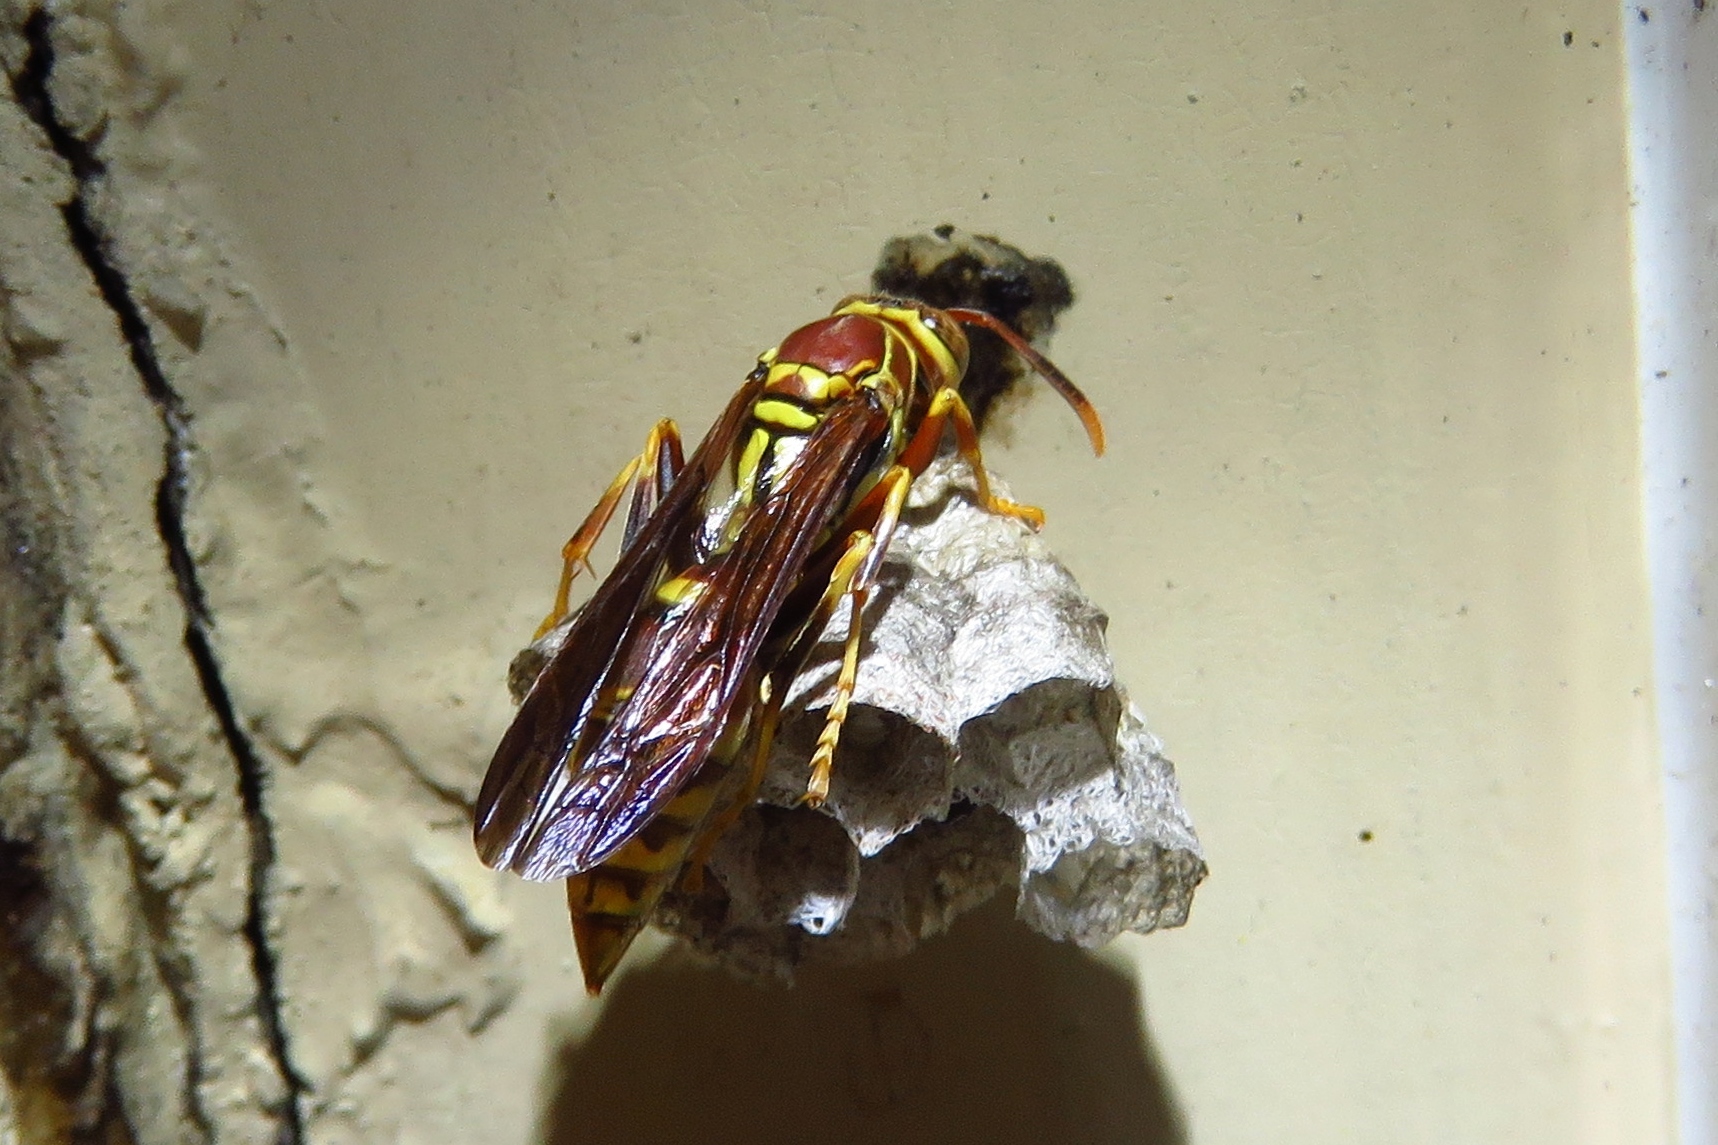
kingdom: Animalia
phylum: Arthropoda
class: Insecta
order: Hymenoptera
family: Eumenidae
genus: Polistes
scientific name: Polistes exclamans
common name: Paper wasp
